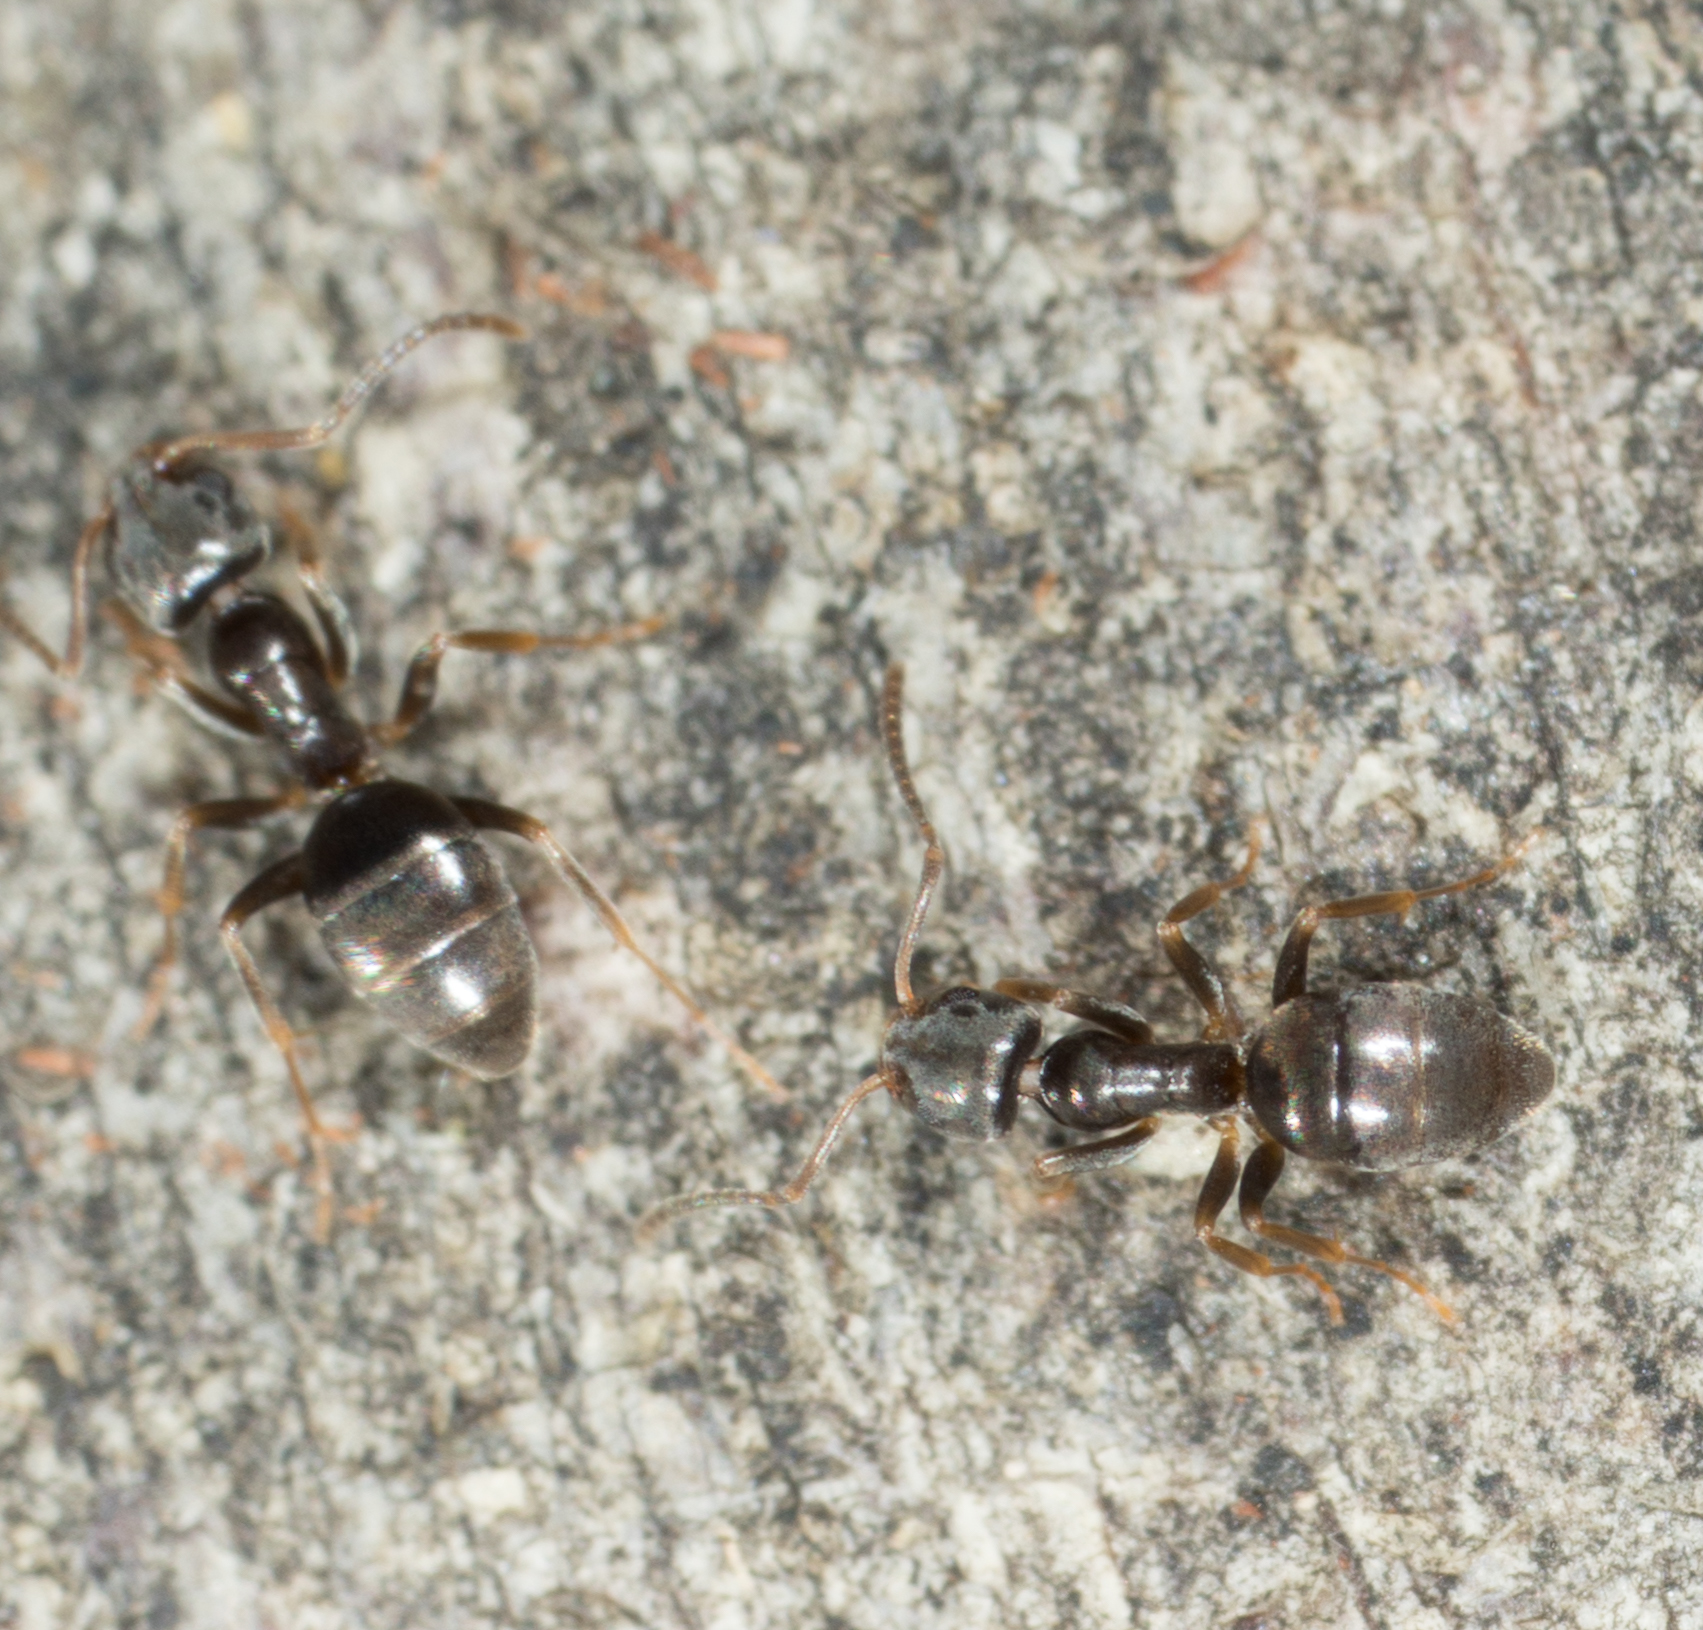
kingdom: Animalia
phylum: Arthropoda
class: Insecta
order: Hymenoptera
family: Formicidae
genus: Tapinoma
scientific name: Tapinoma sessile
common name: Odorous house ant
